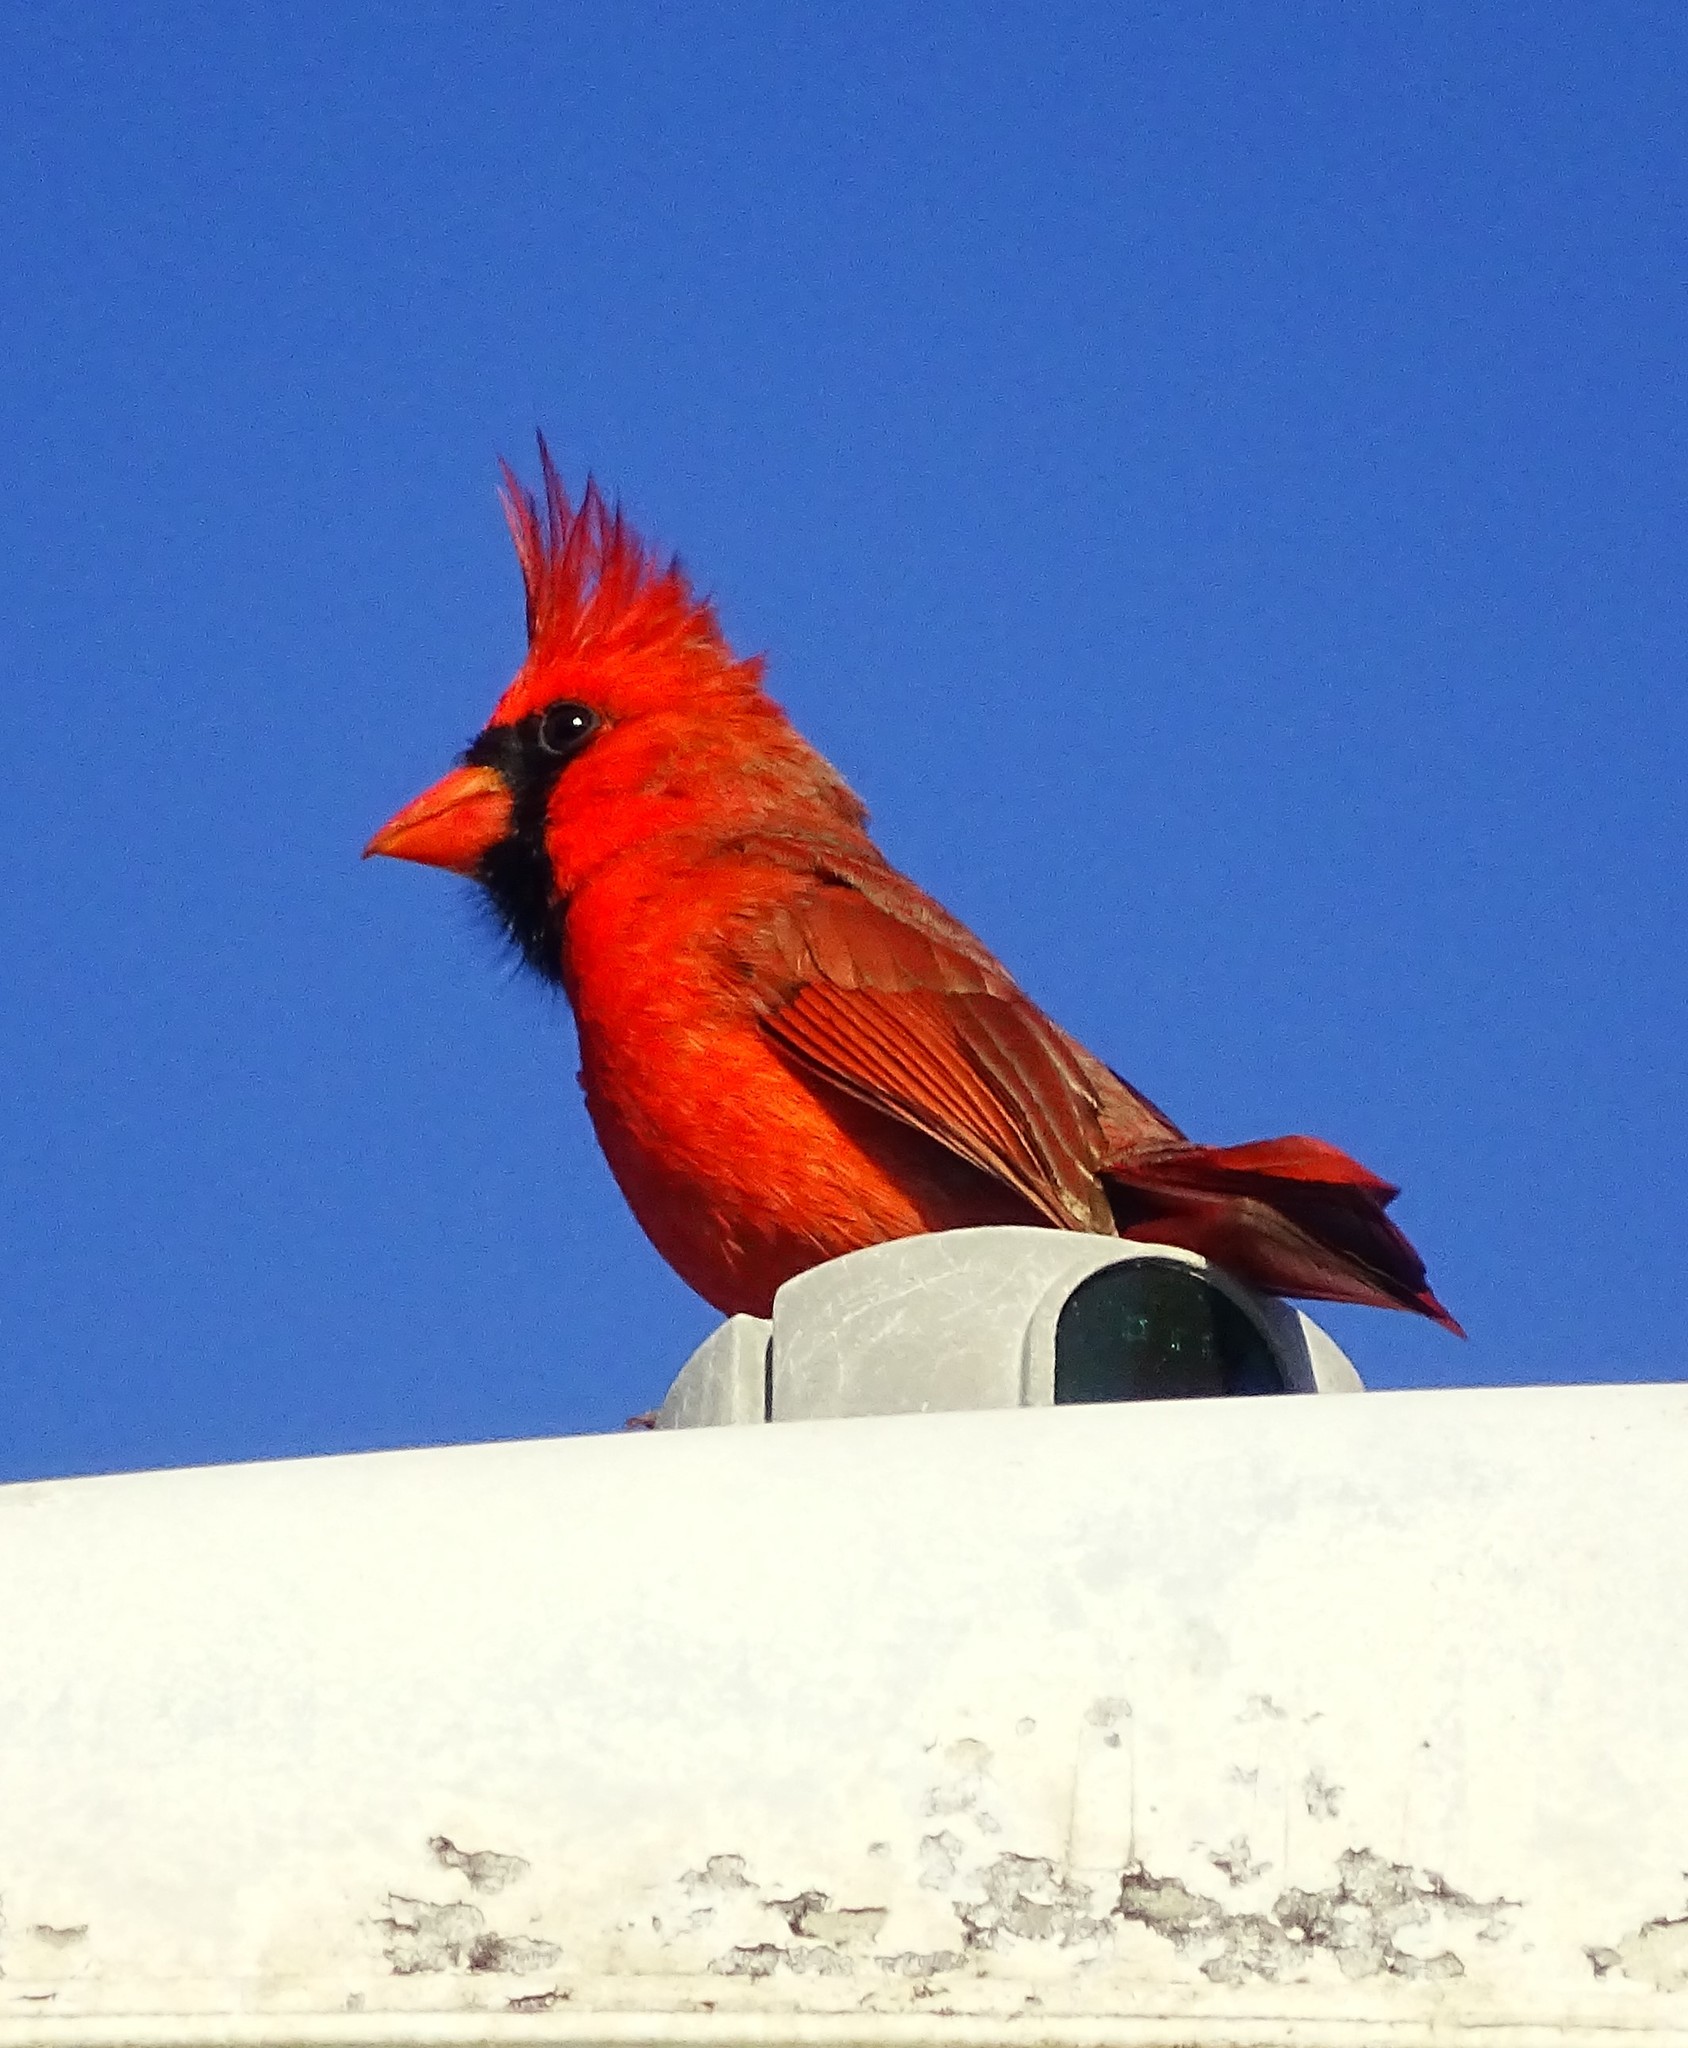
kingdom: Animalia
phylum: Chordata
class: Aves
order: Passeriformes
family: Cardinalidae
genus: Cardinalis
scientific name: Cardinalis cardinalis
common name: Northern cardinal
